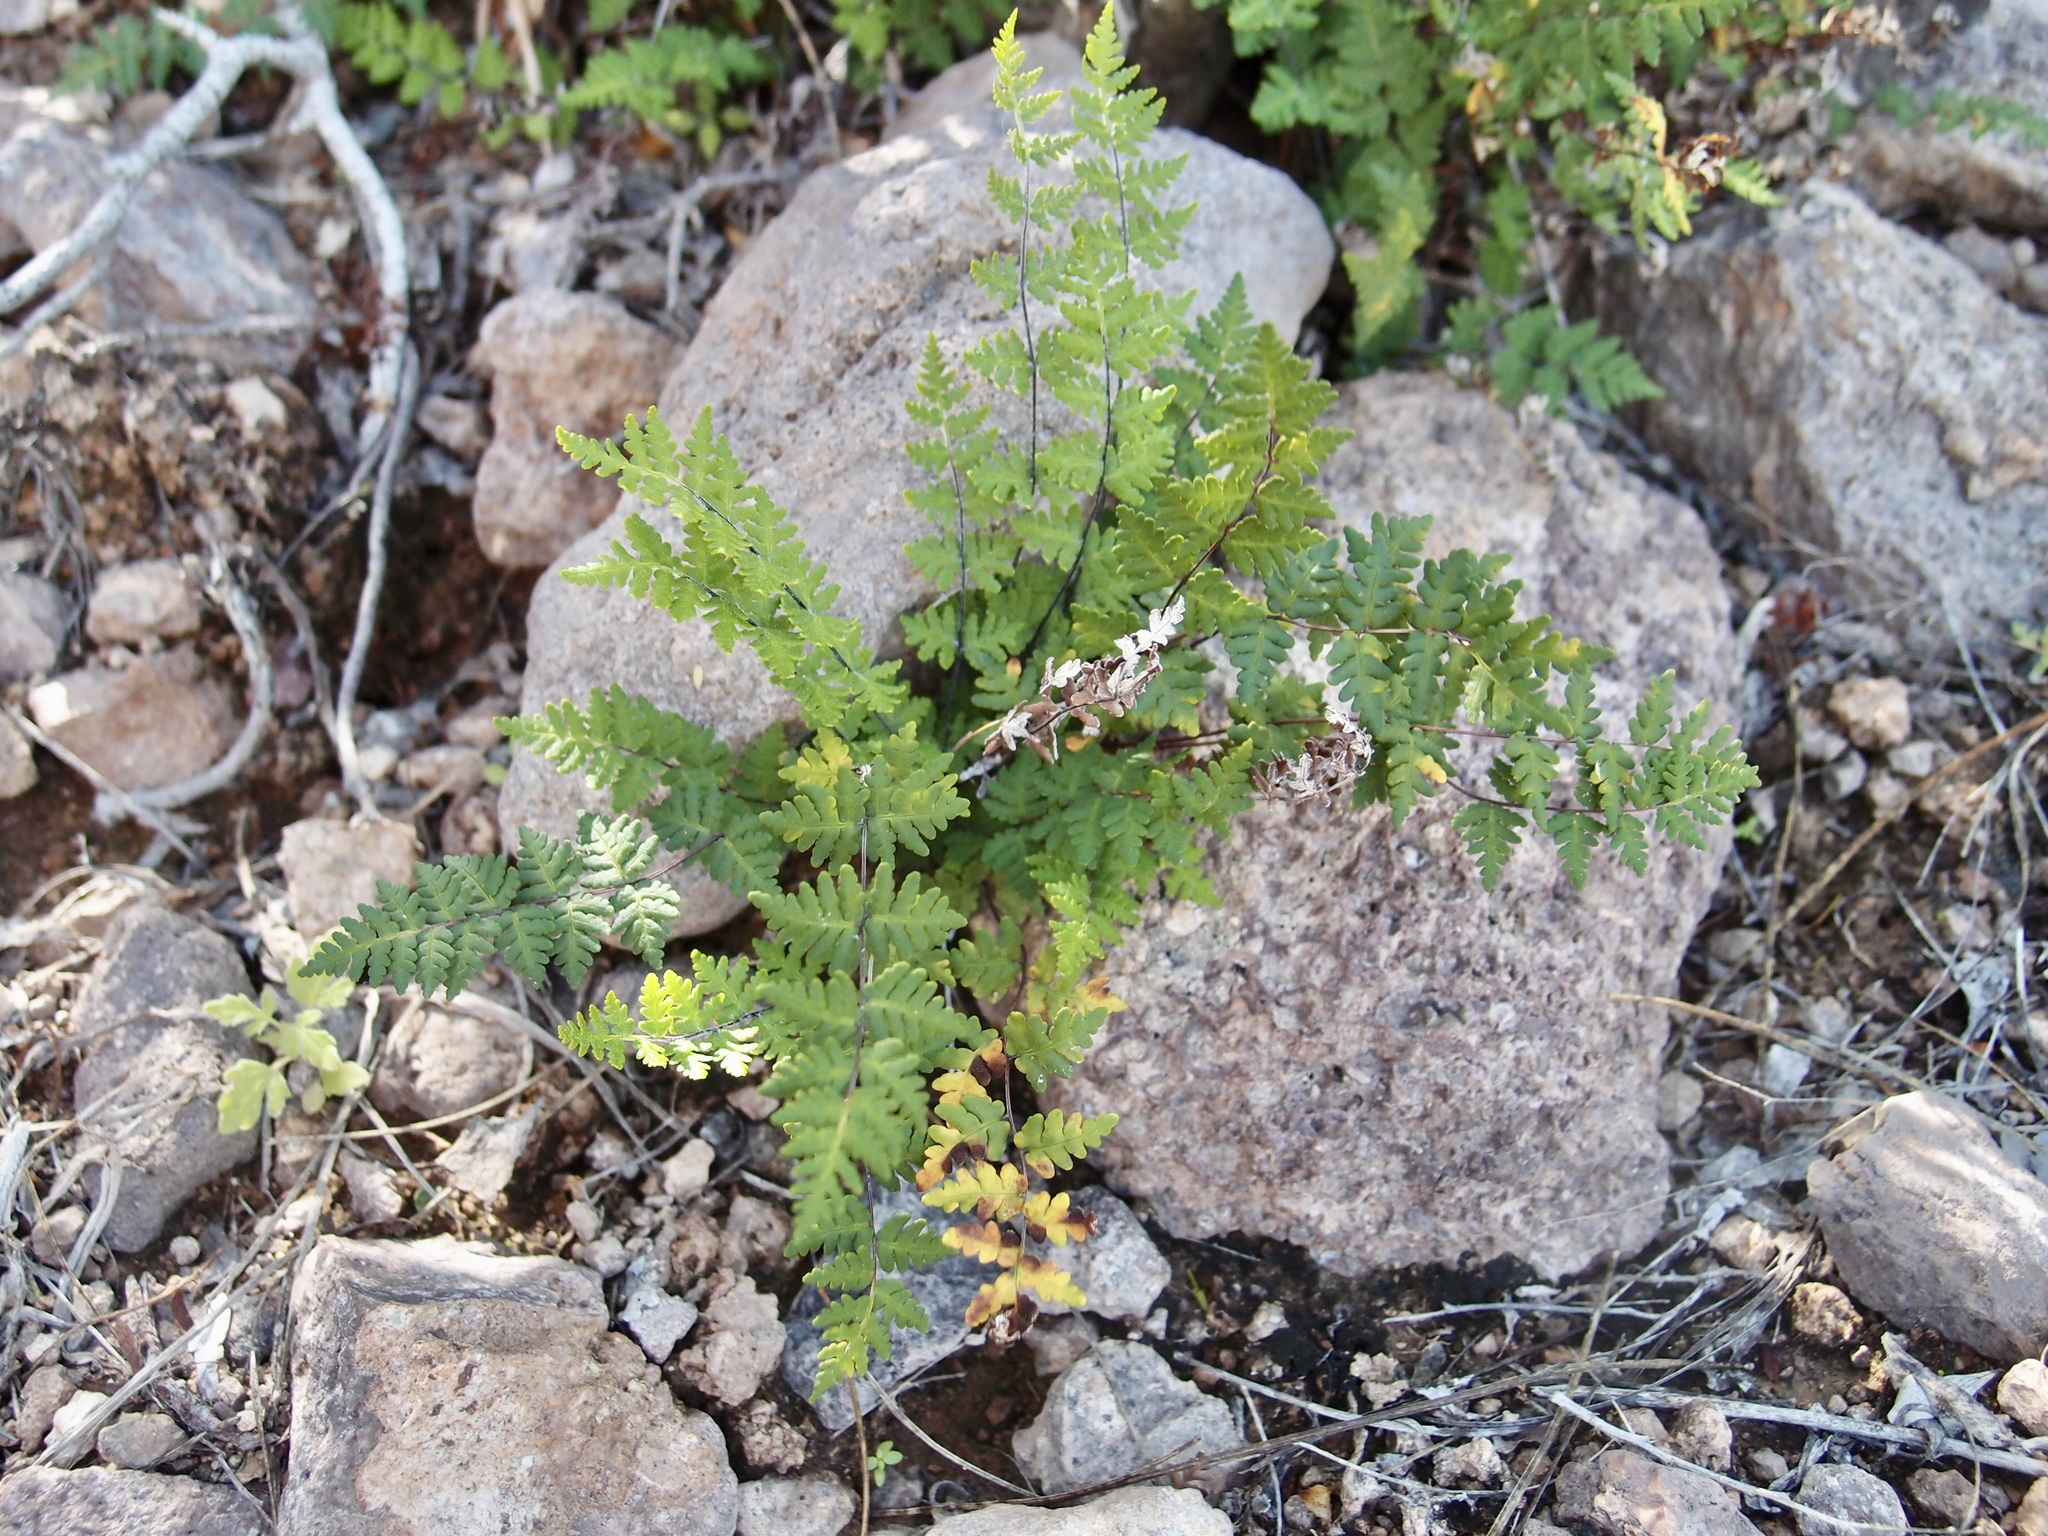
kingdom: Plantae
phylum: Tracheophyta
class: Polypodiopsida
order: Polypodiales
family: Pteridaceae
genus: Notholaena
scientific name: Notholaena lemmonii
